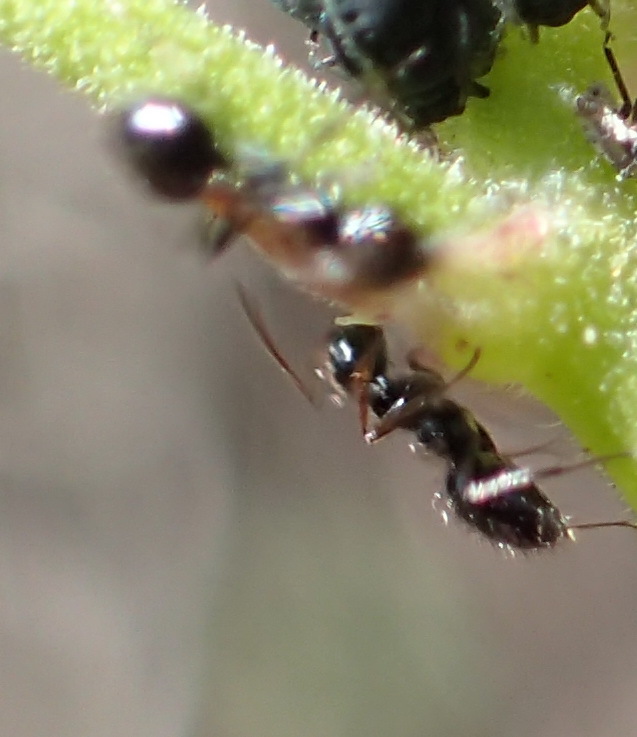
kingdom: Animalia
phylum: Arthropoda
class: Insecta
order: Hymenoptera
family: Formicidae
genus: Lepisiota
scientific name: Lepisiota crinita
